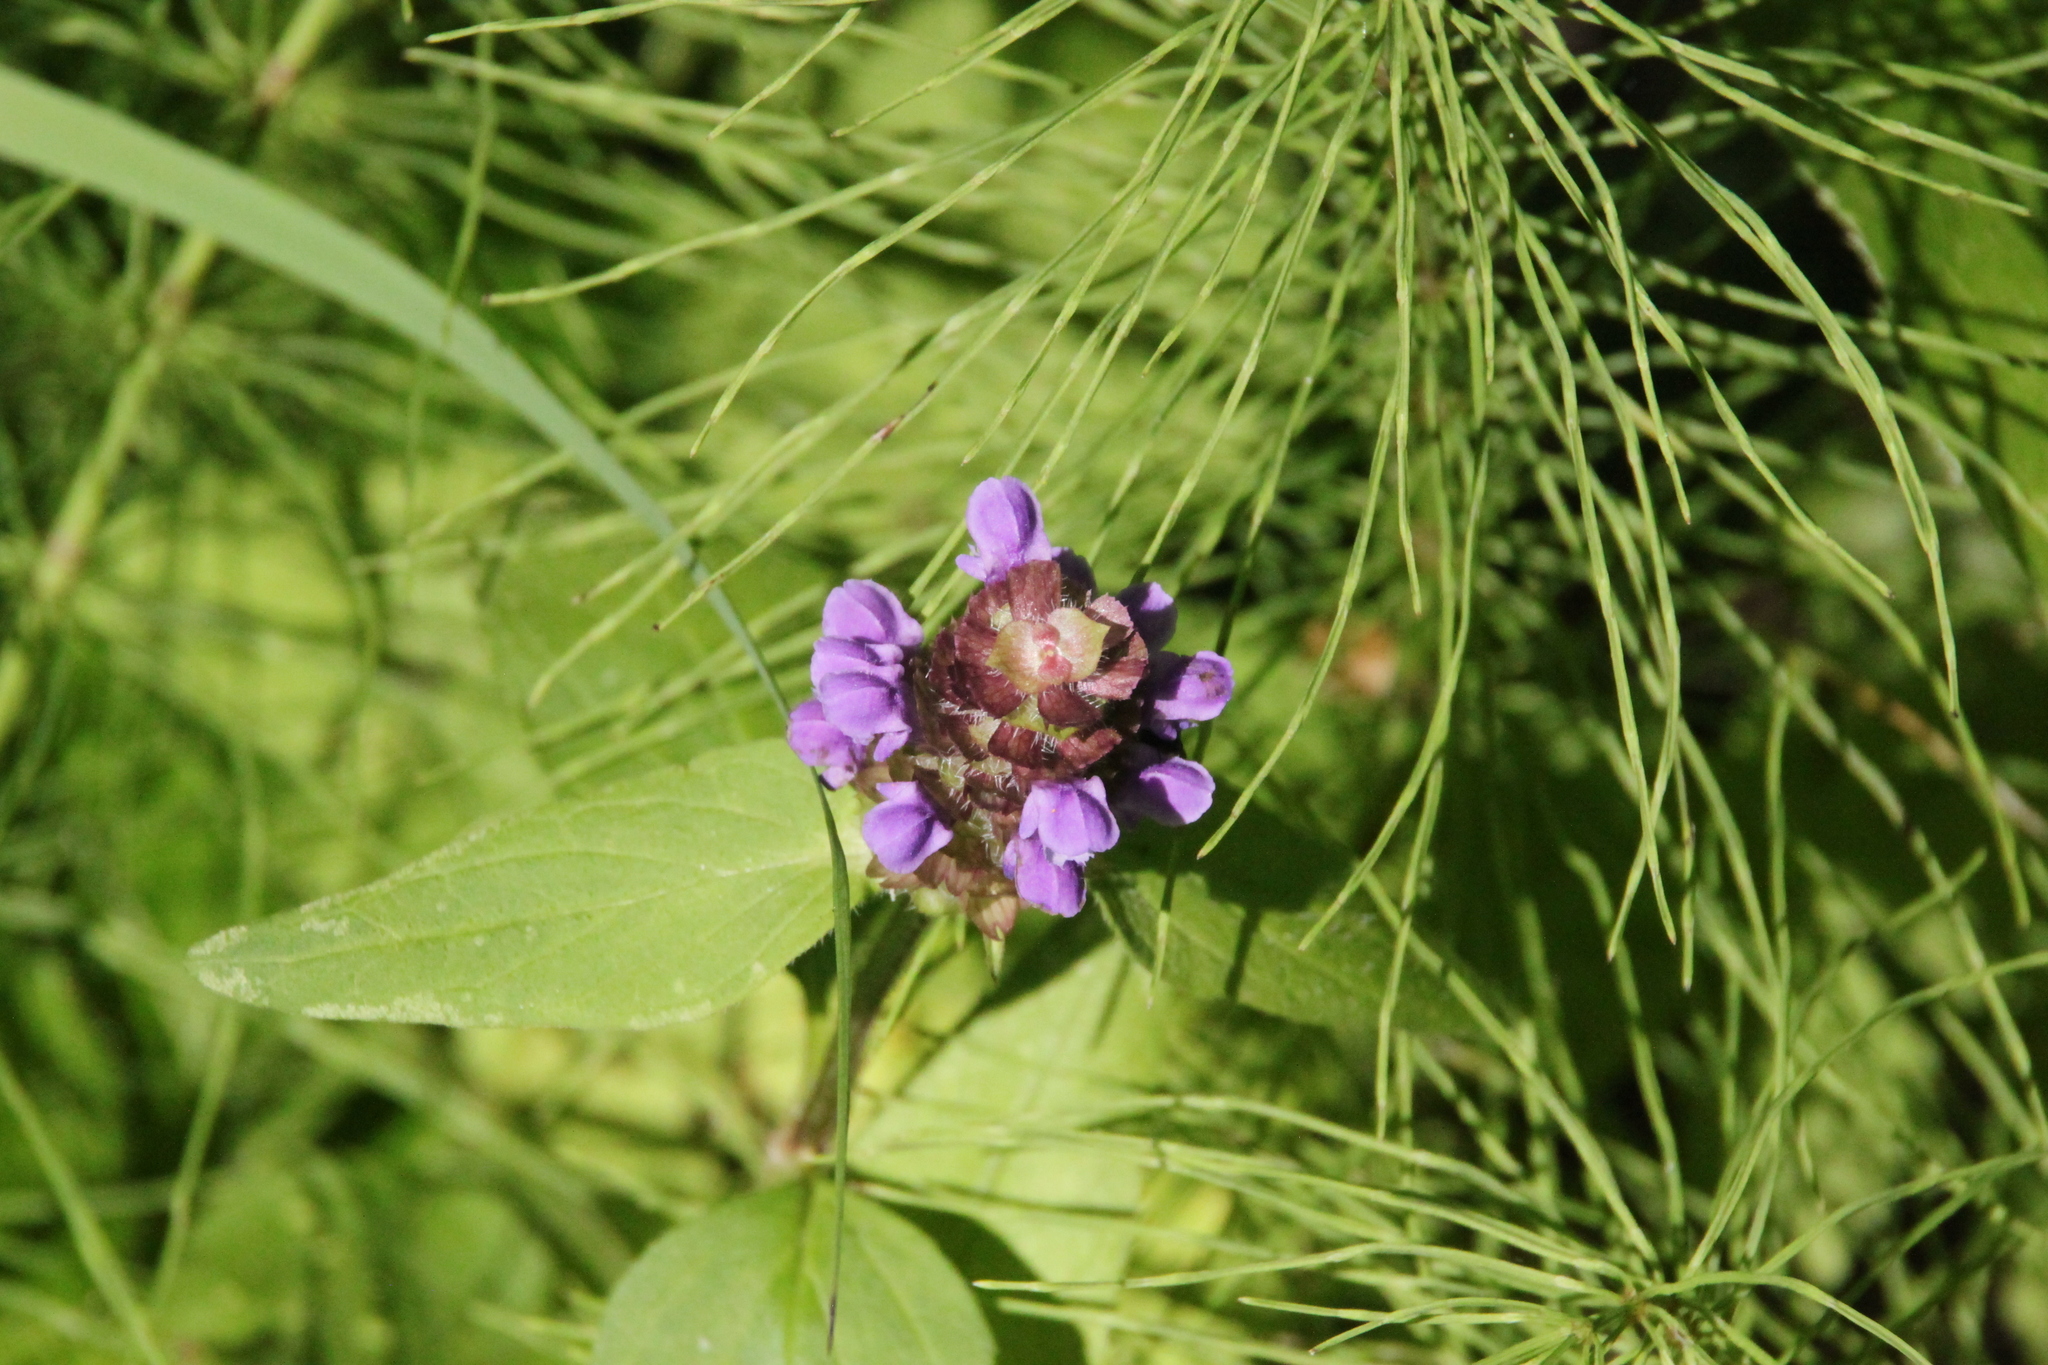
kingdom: Plantae
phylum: Tracheophyta
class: Magnoliopsida
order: Lamiales
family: Lamiaceae
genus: Prunella
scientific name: Prunella vulgaris
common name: Heal-all
